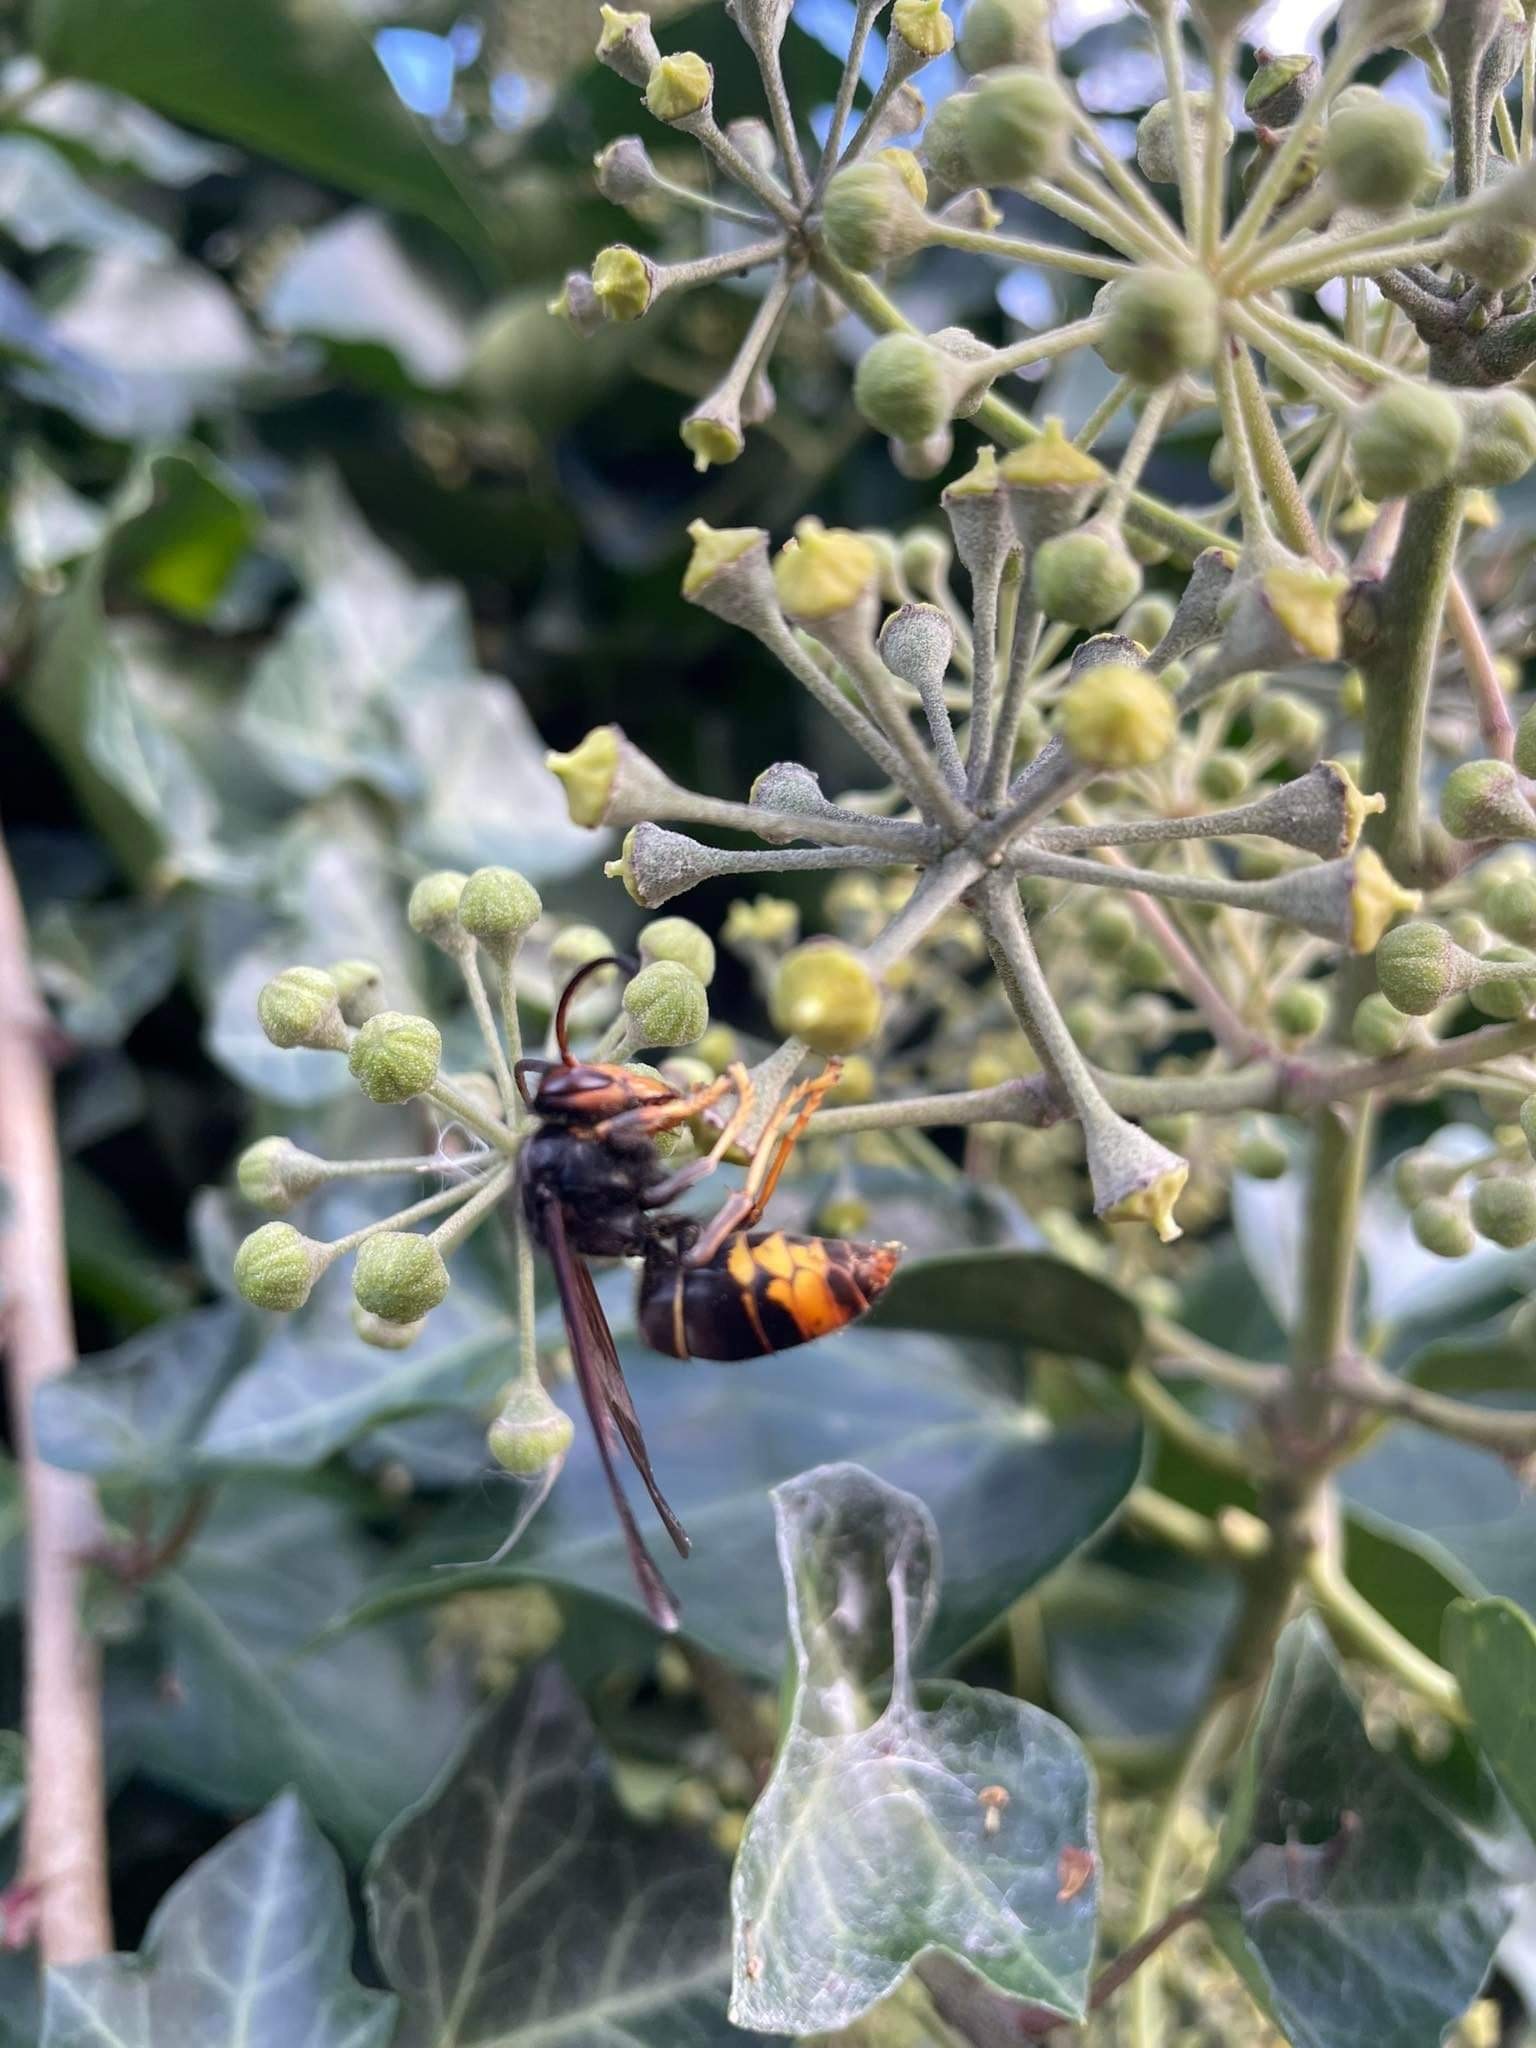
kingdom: Animalia
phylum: Arthropoda
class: Insecta
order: Hymenoptera
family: Vespidae
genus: Vespa
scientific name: Vespa velutina
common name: Asian hornet
